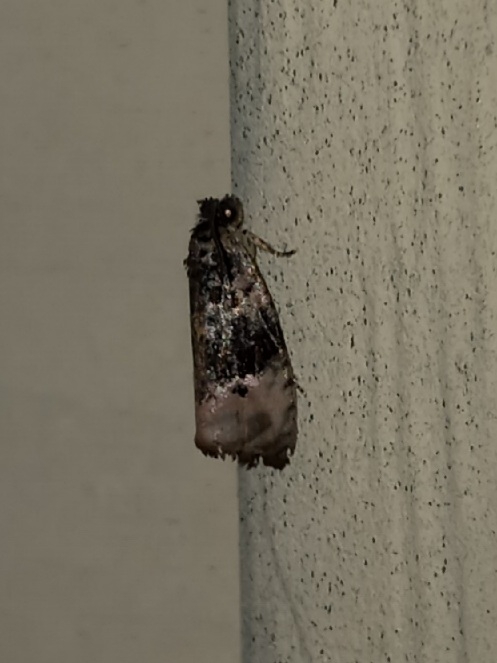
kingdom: Animalia
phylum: Arthropoda
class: Insecta
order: Lepidoptera
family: Tortricidae
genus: Hedya
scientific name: Hedya separatana
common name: Pink-washed leafroller moth
